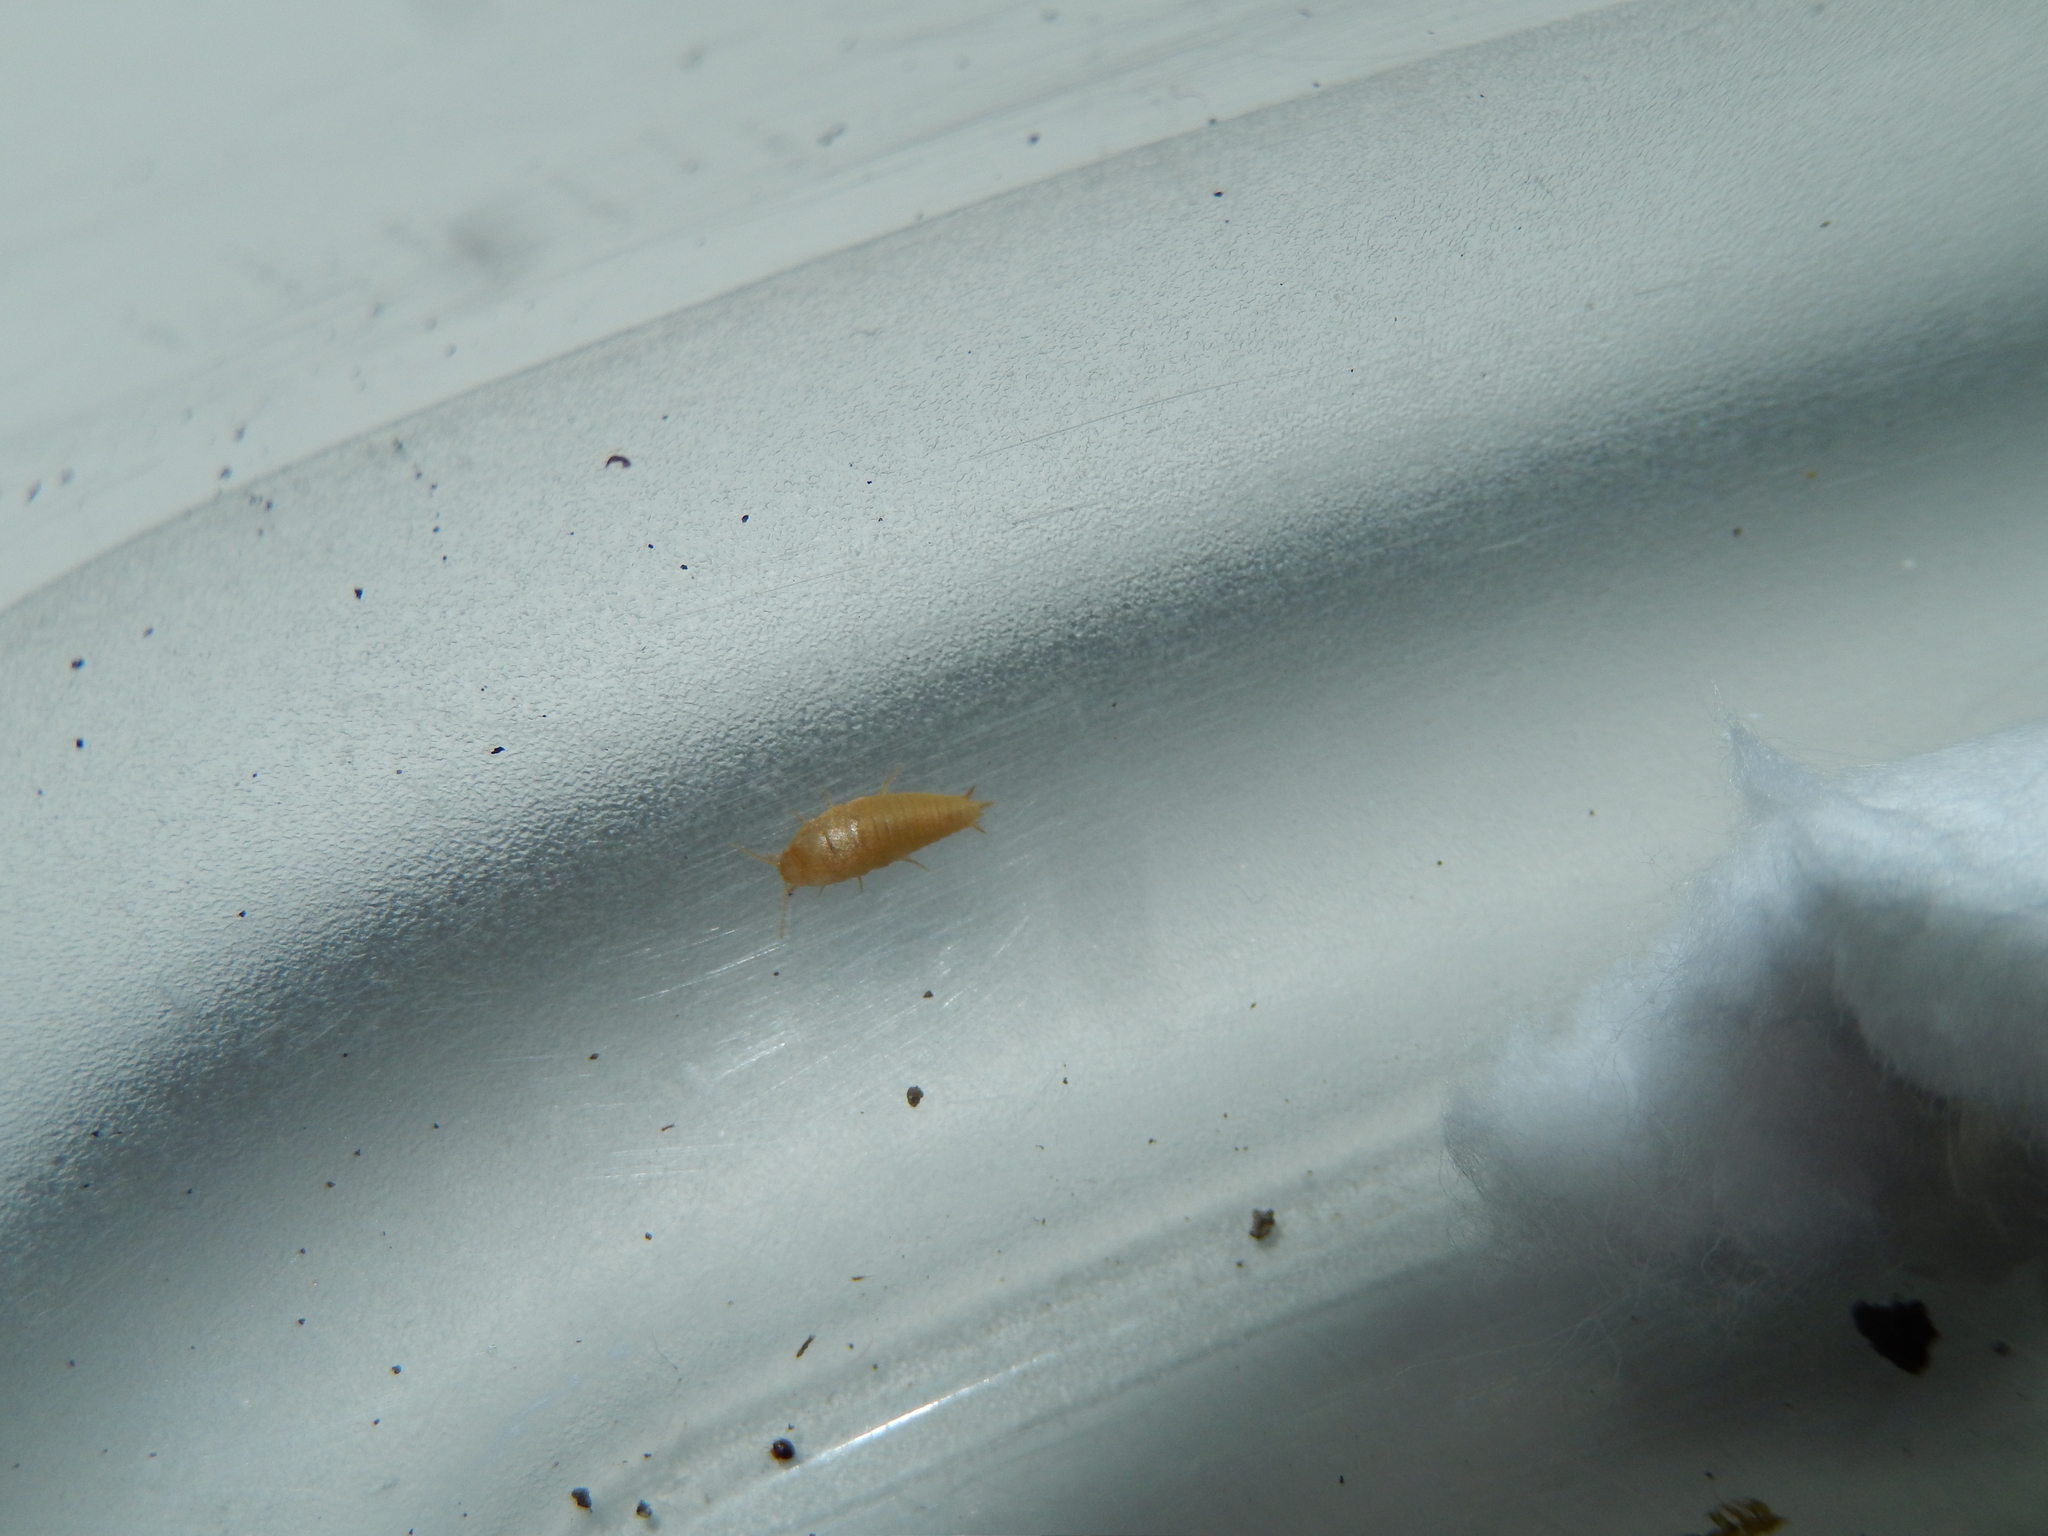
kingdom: Animalia
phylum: Arthropoda
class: Insecta
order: Zygentoma
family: Nicoletiidae
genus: Atelura
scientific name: Atelura formicaria
